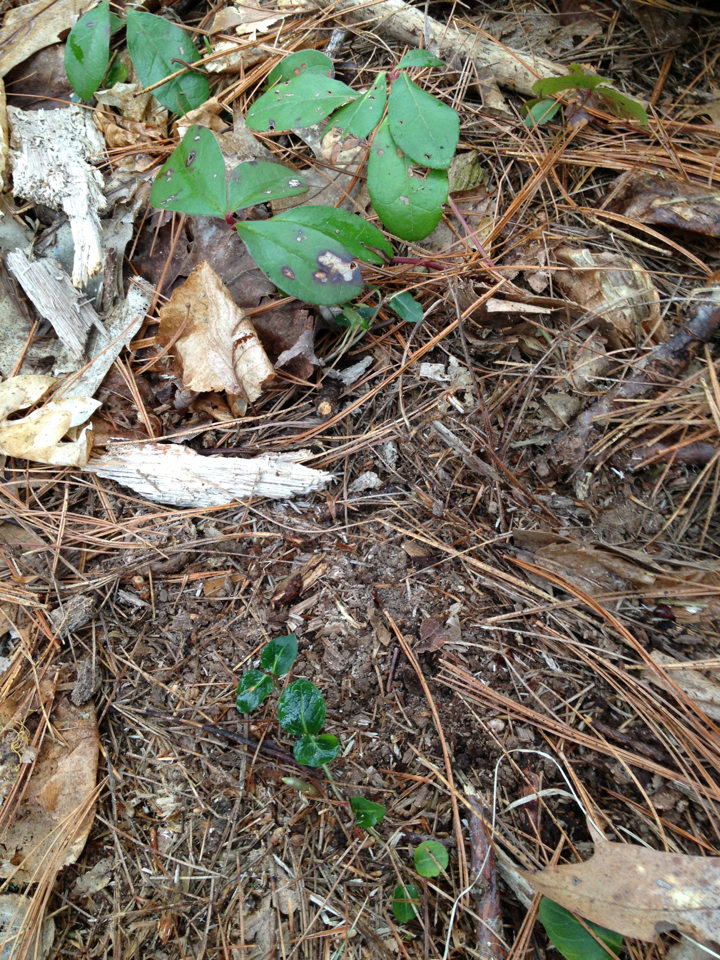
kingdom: Plantae
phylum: Tracheophyta
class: Magnoliopsida
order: Gentianales
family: Rubiaceae
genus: Mitchella
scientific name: Mitchella repens
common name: Partridge-berry
